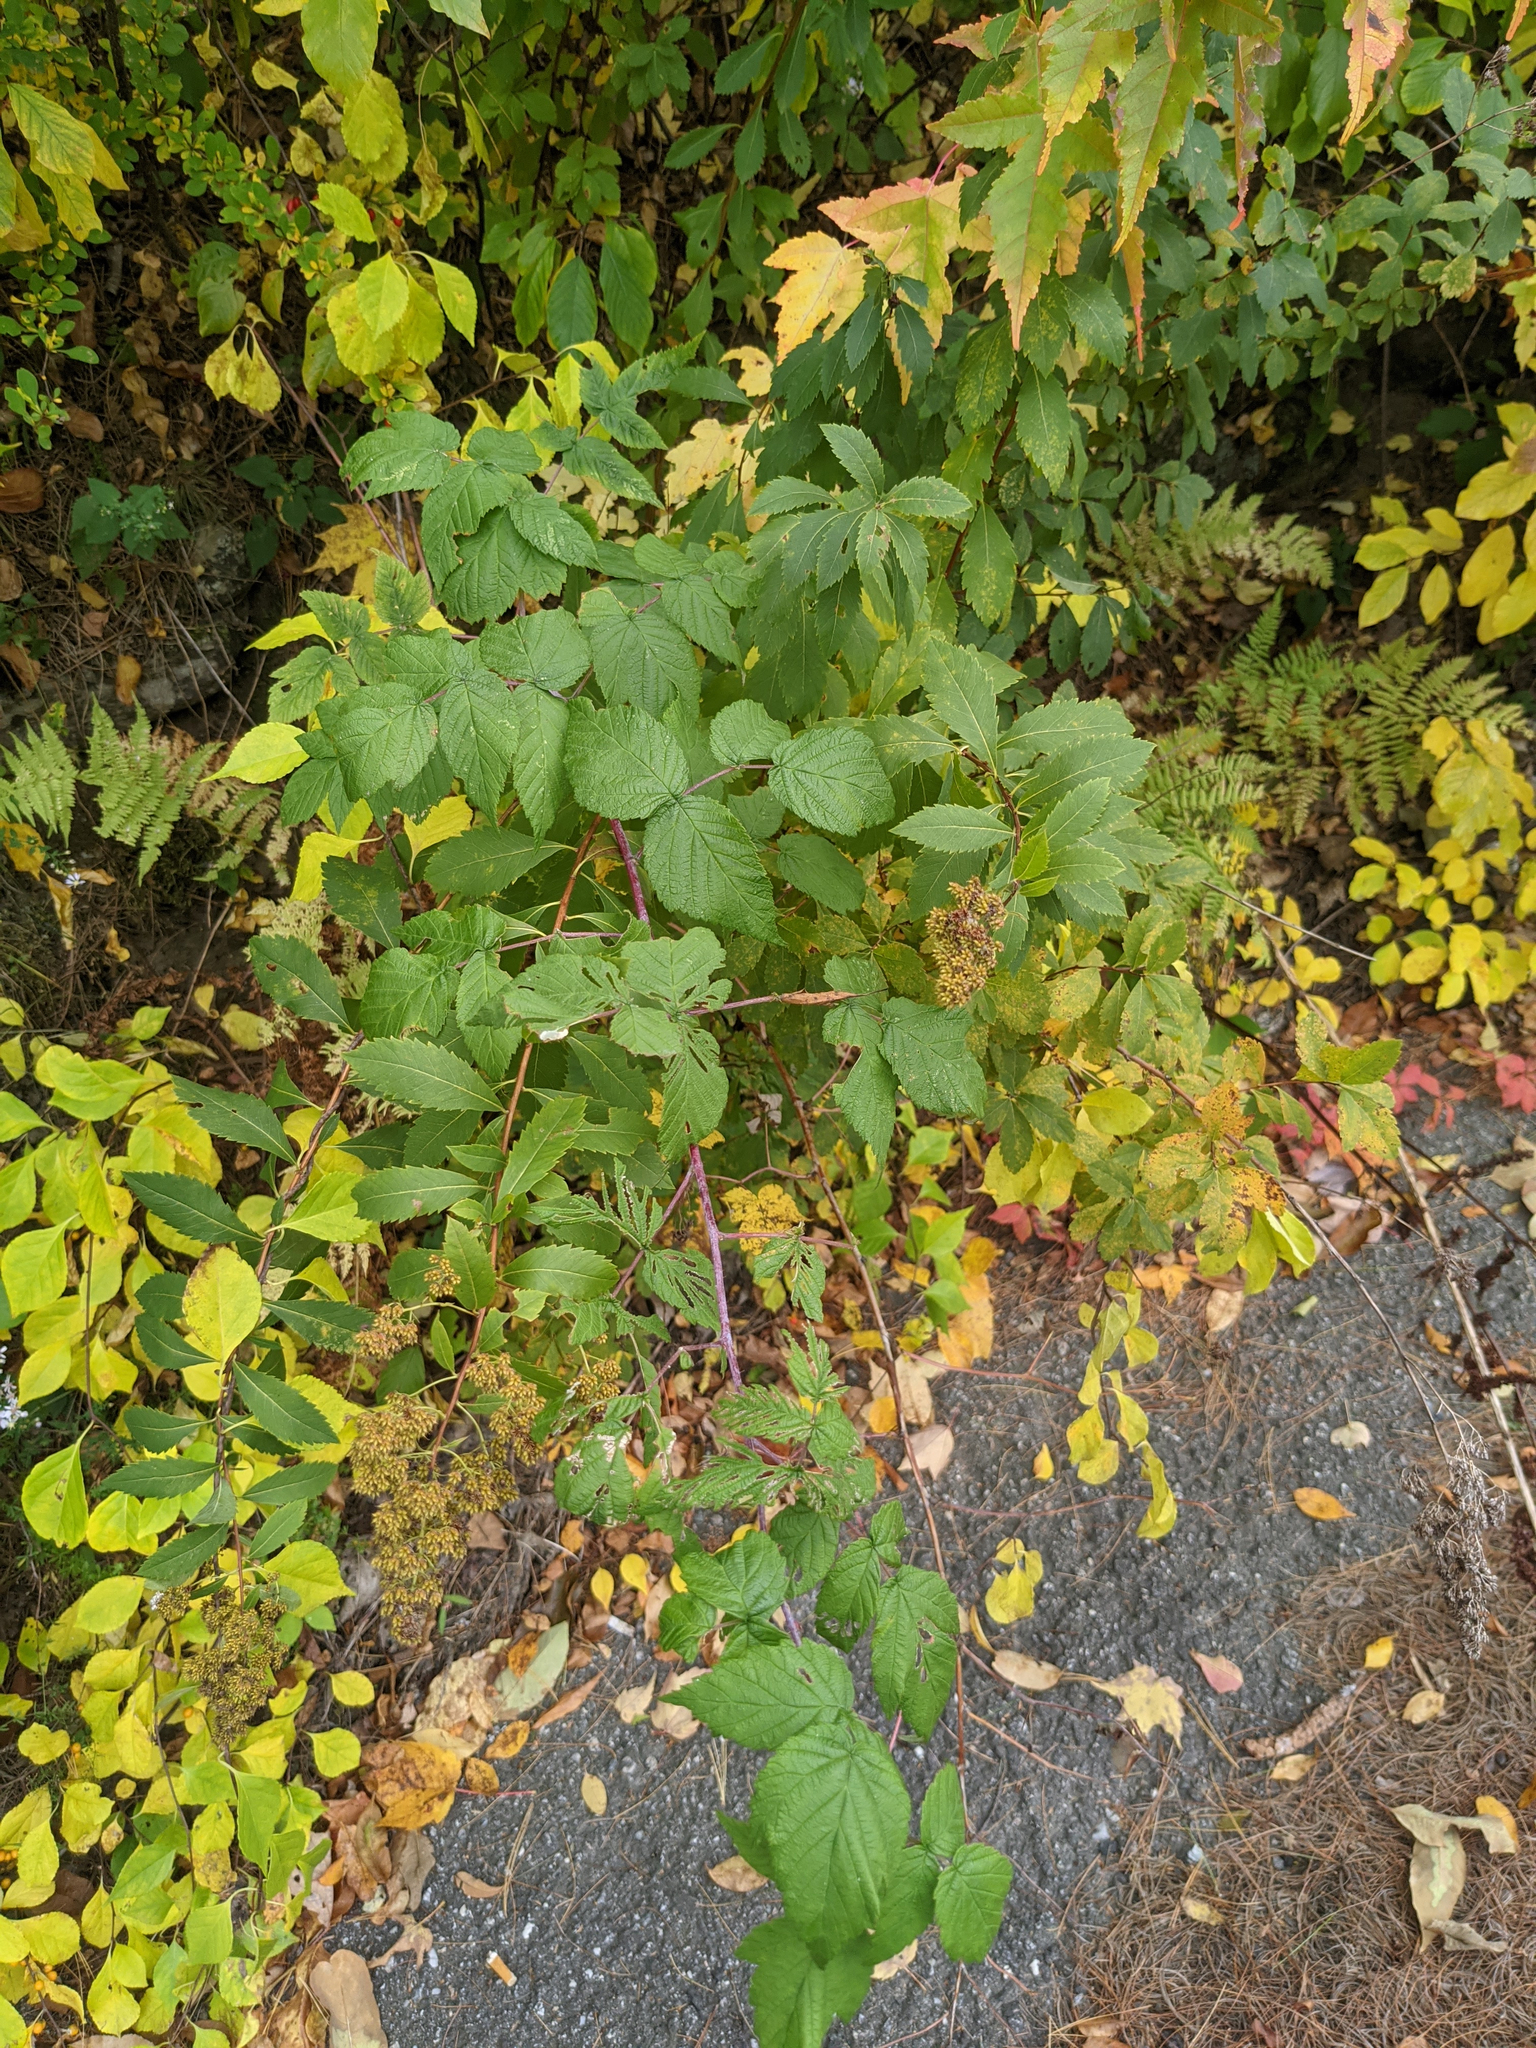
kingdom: Plantae
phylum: Tracheophyta
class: Magnoliopsida
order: Rosales
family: Rosaceae
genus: Spiraea
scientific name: Spiraea alba
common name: Pale bridewort
